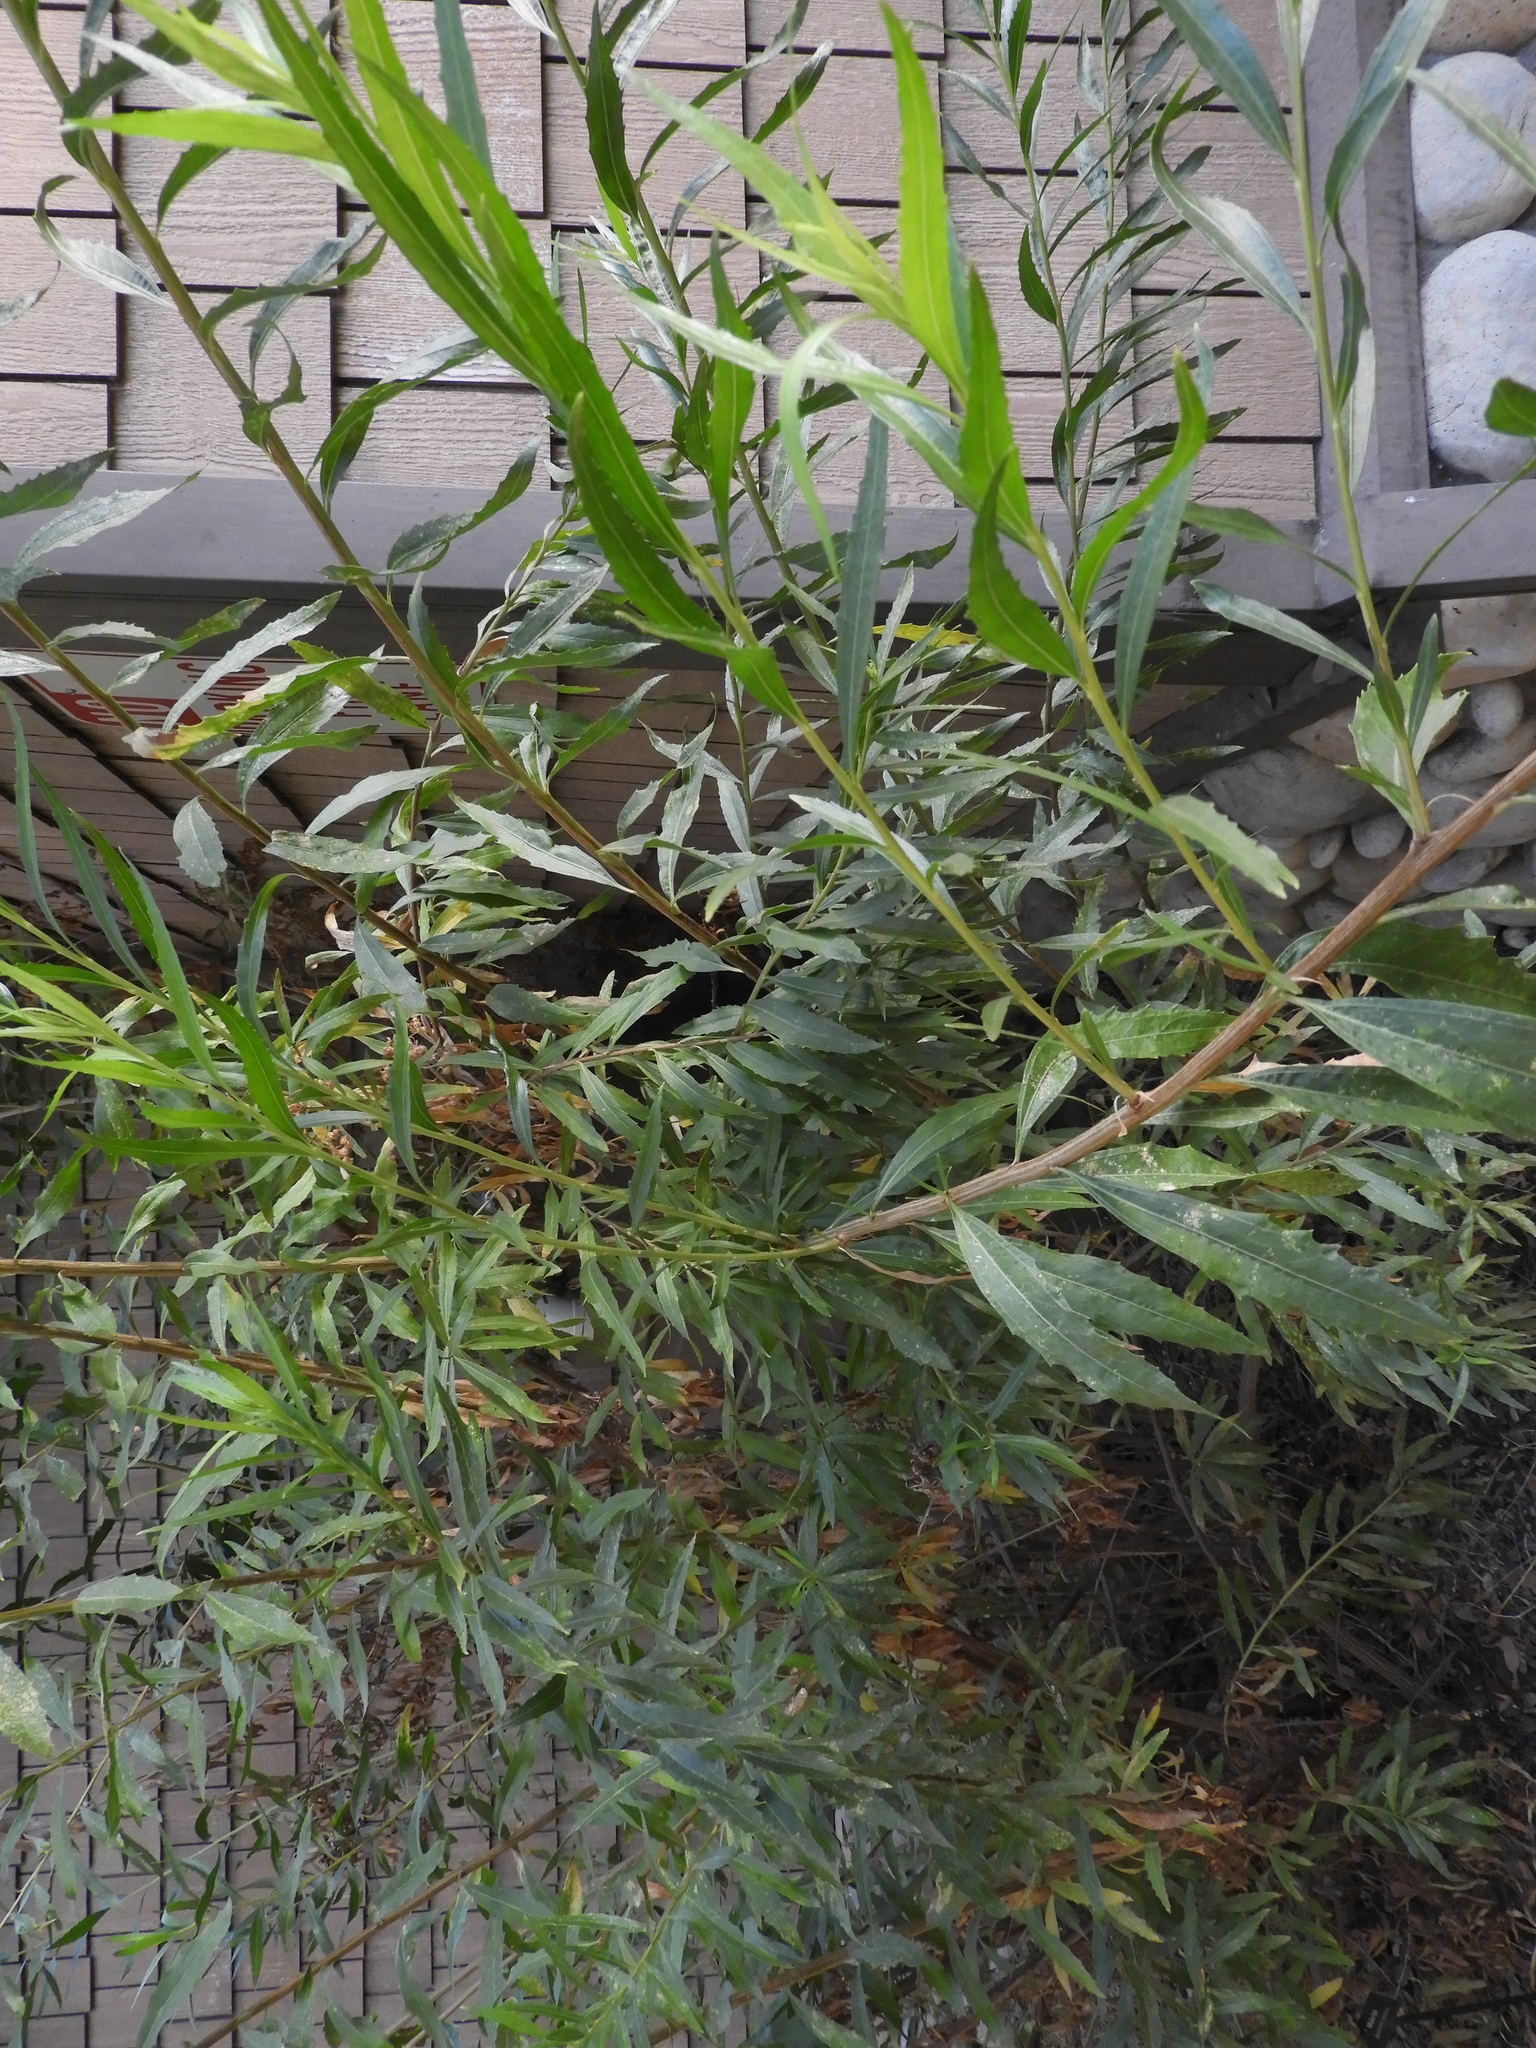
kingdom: Plantae
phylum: Tracheophyta
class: Magnoliopsida
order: Asterales
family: Asteraceae
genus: Baccharis
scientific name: Baccharis salicifolia
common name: Sticky baccharis
